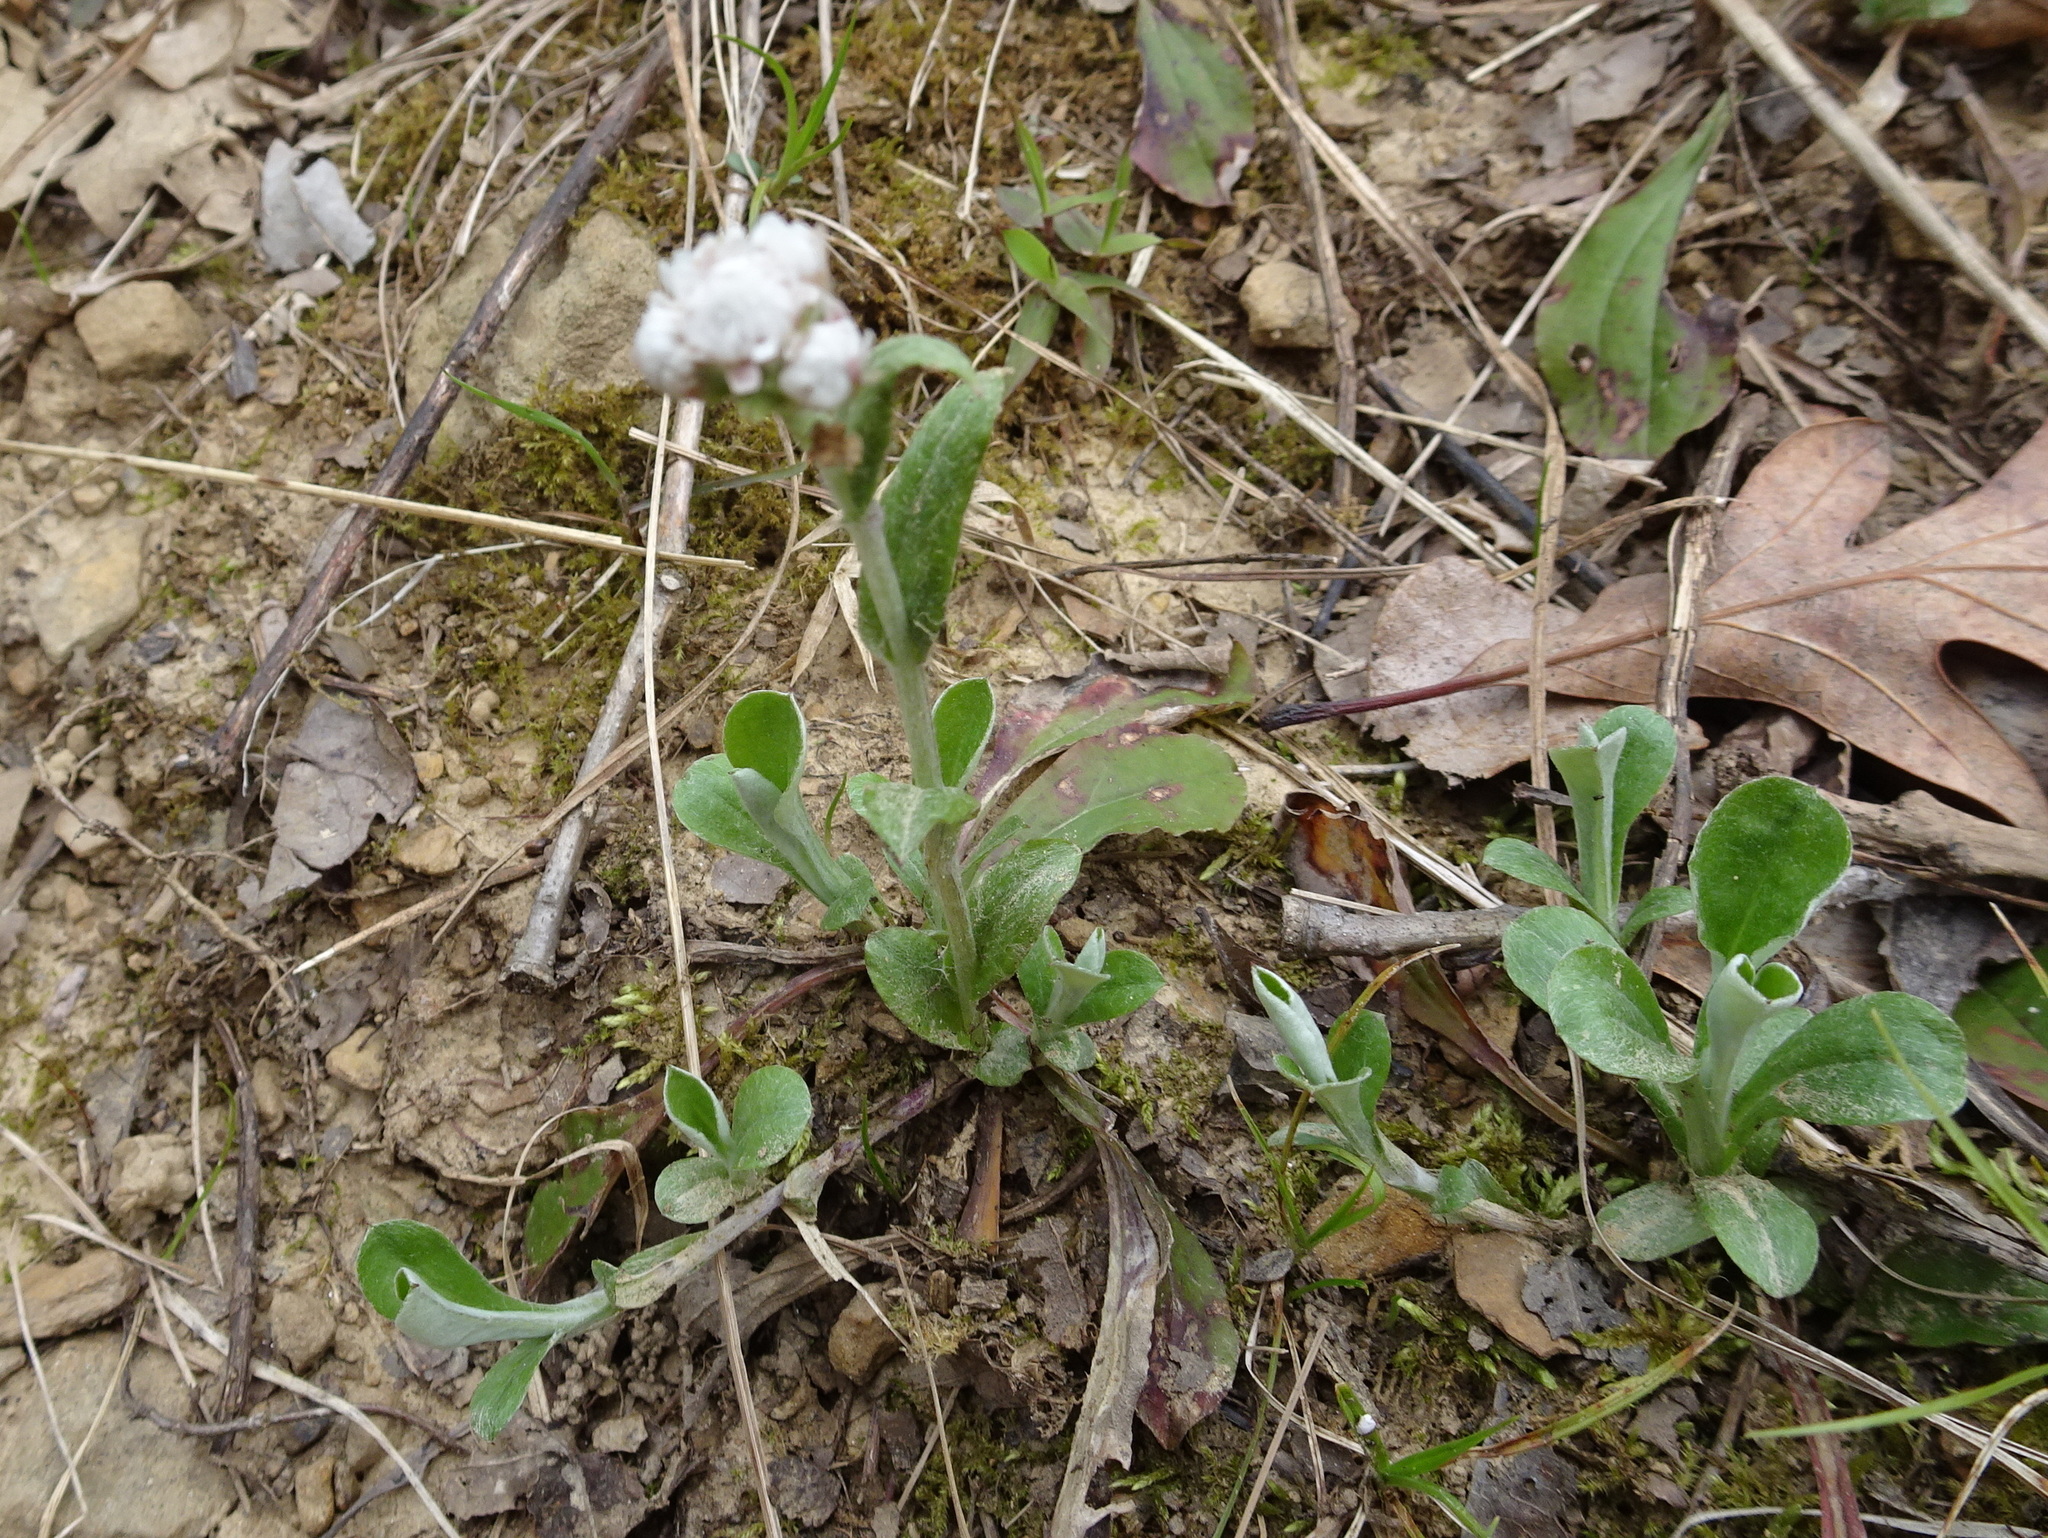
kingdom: Plantae
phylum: Tracheophyta
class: Magnoliopsida
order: Asterales
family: Asteraceae
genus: Antennaria
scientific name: Antennaria neglecta
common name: Field pussytoes
